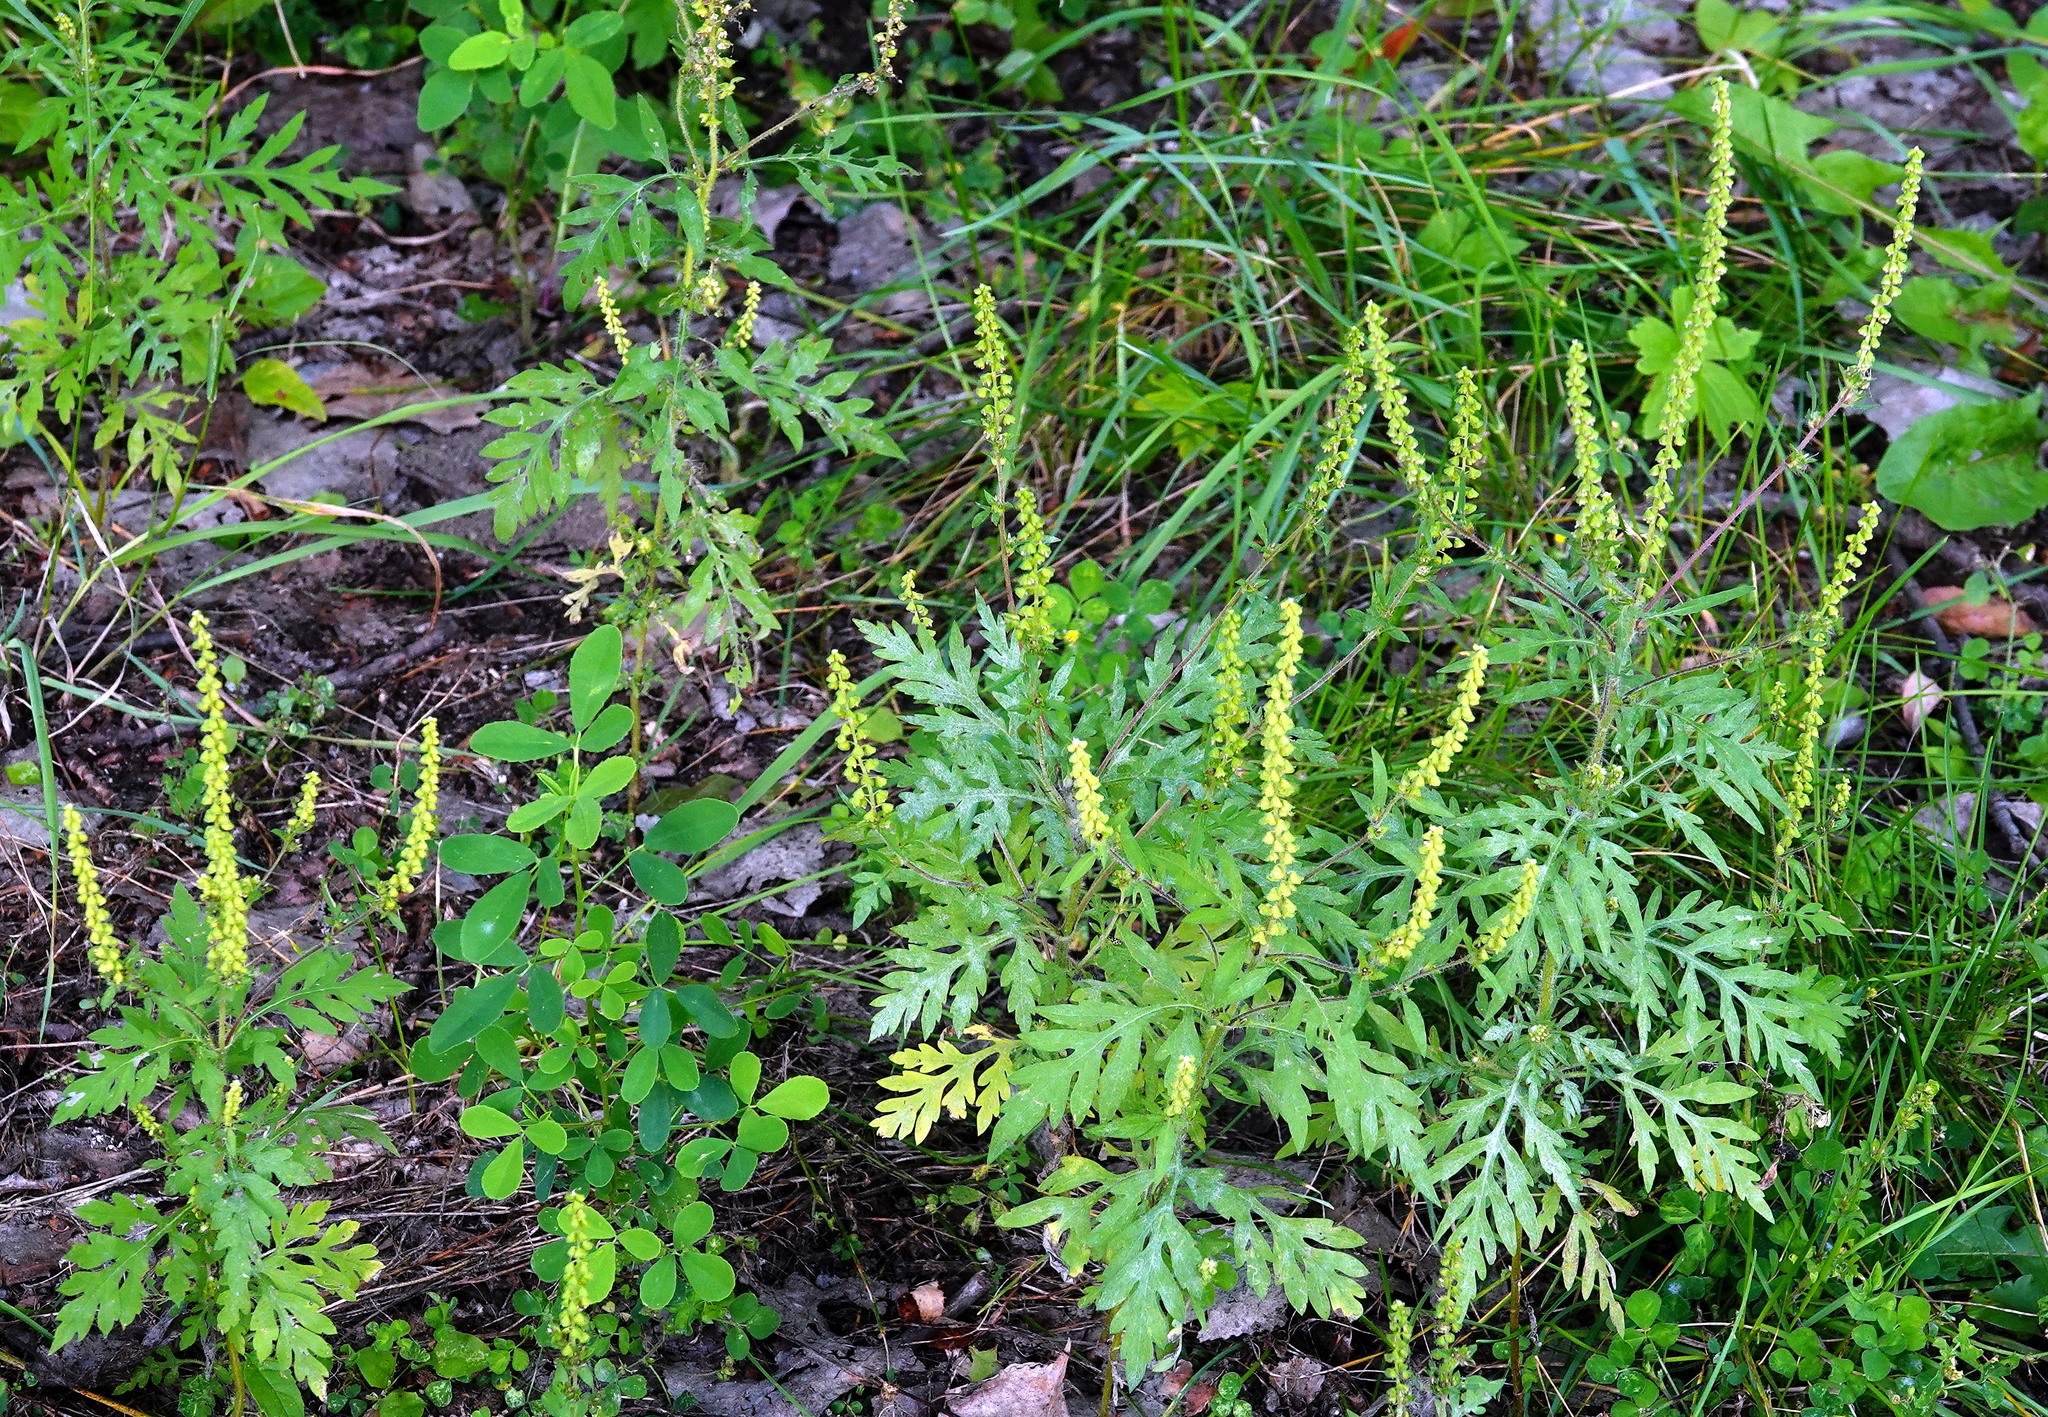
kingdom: Plantae
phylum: Tracheophyta
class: Magnoliopsida
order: Asterales
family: Asteraceae
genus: Ambrosia
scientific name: Ambrosia artemisiifolia
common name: Annual ragweed
